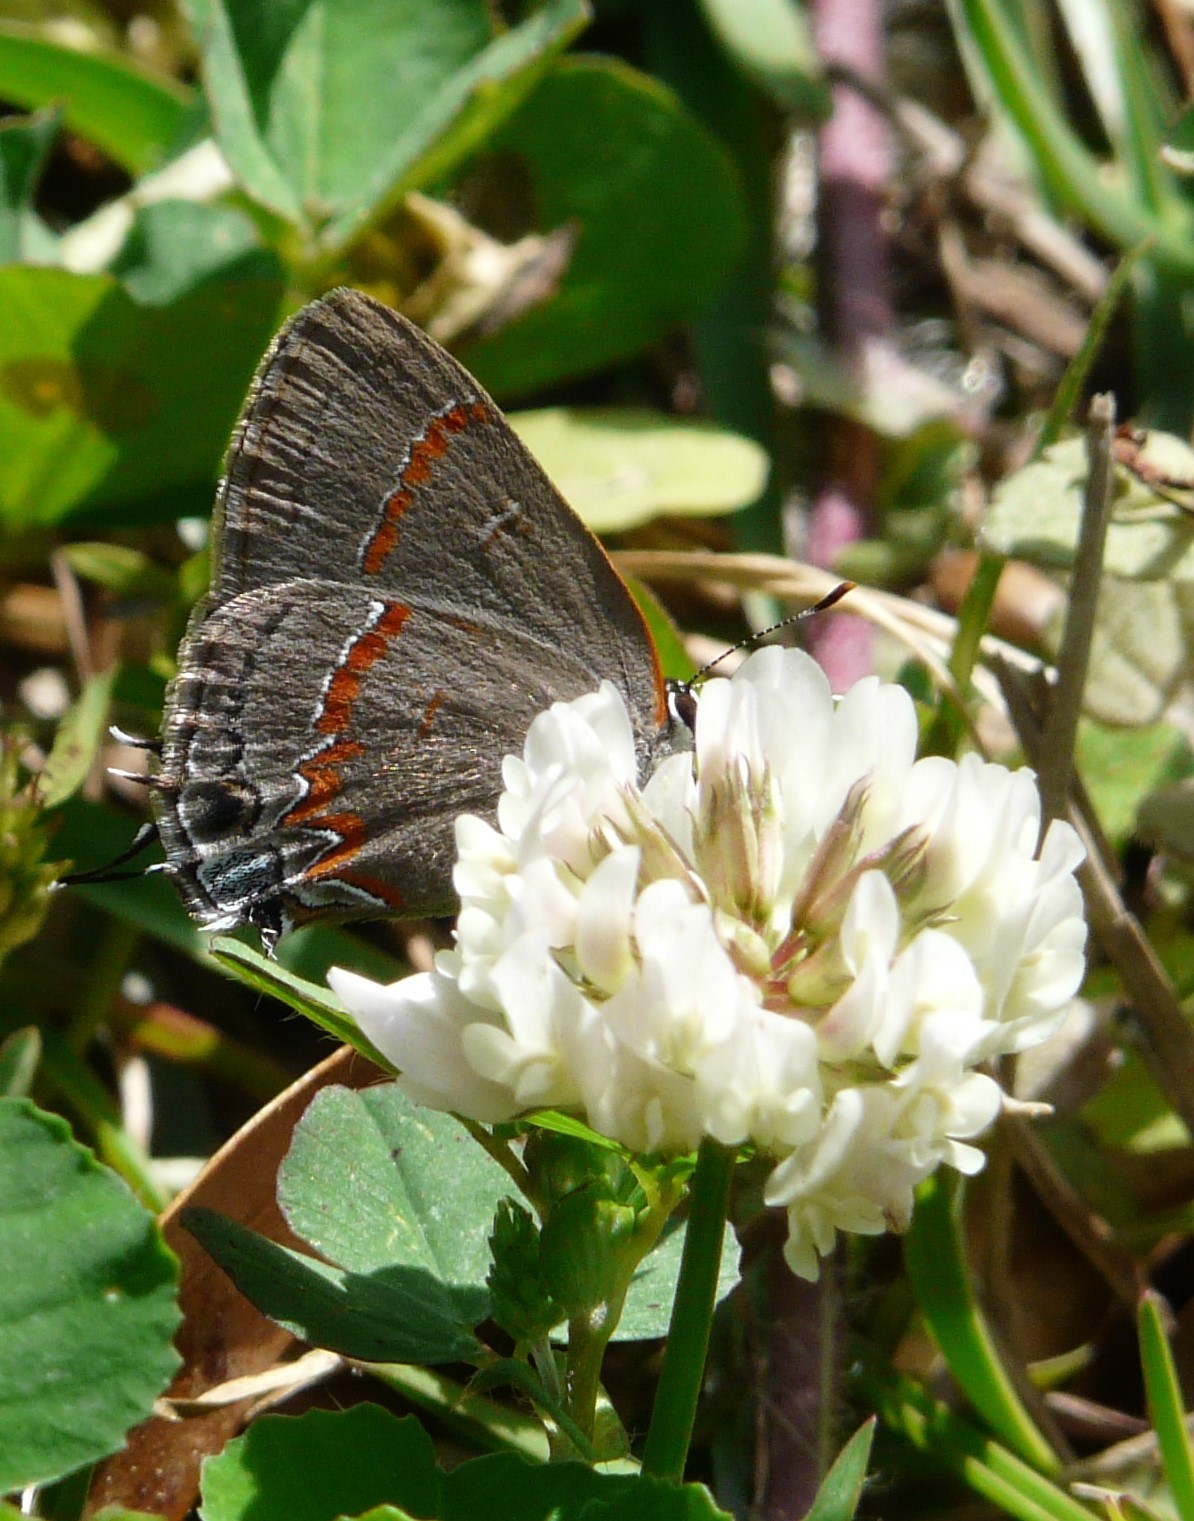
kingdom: Animalia
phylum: Arthropoda
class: Insecta
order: Lepidoptera
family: Lycaenidae
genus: Calycopis
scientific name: Calycopis cecrops
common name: Red-banded hairstreak
